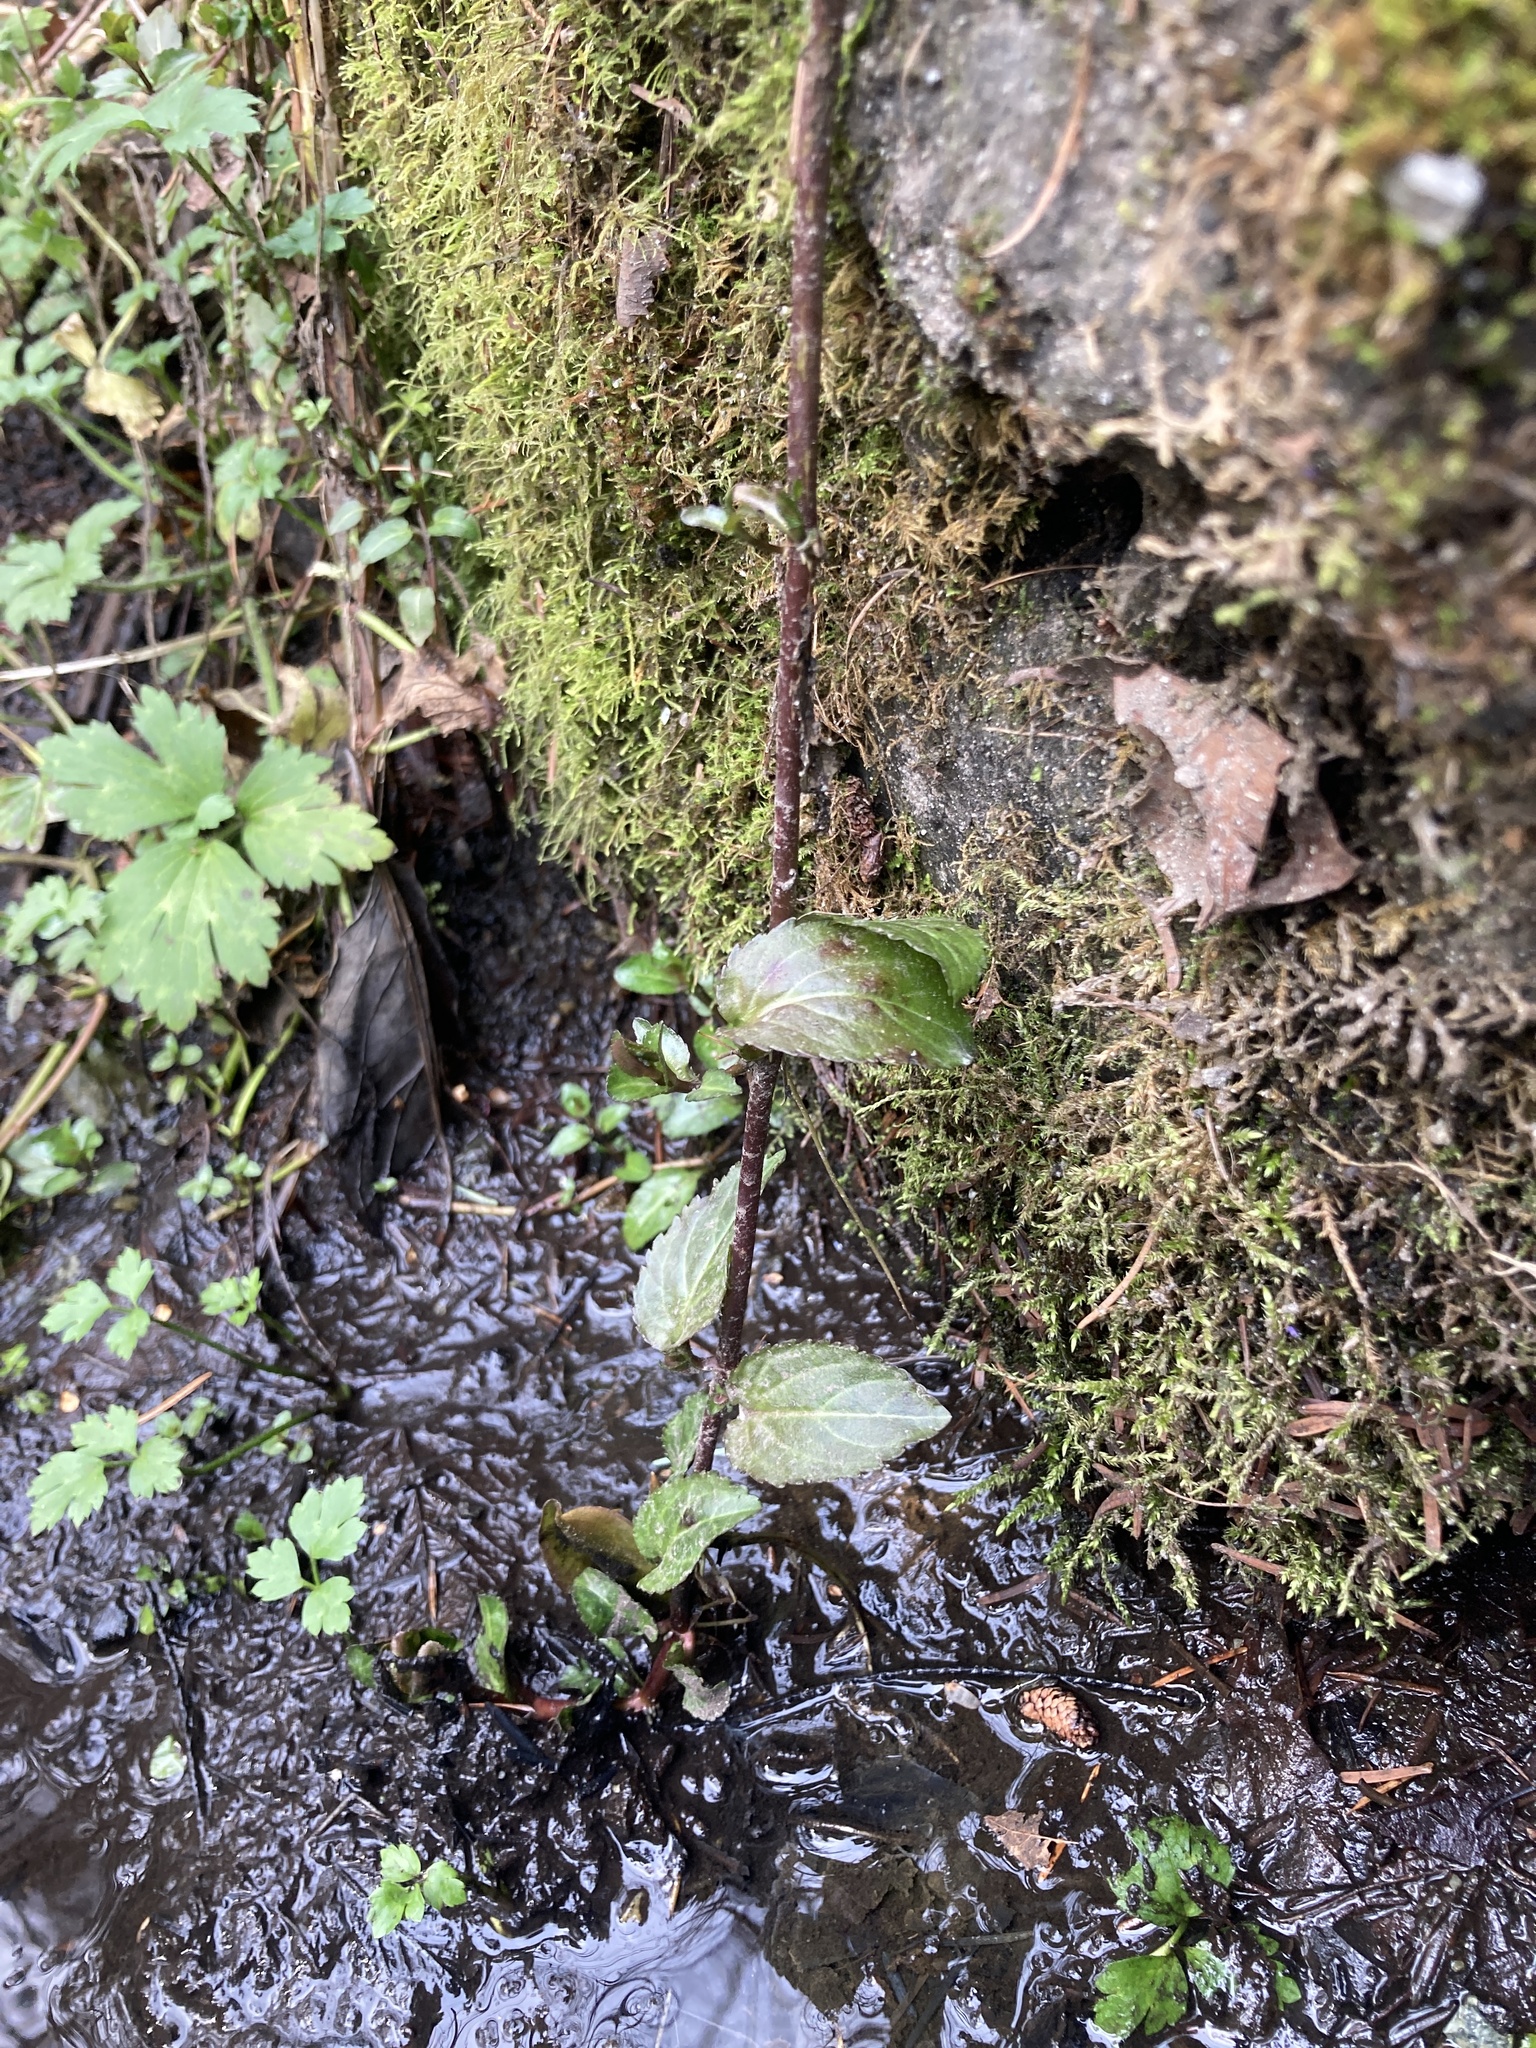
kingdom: Plantae
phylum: Tracheophyta
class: Magnoliopsida
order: Lamiales
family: Plantaginaceae
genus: Veronica
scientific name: Veronica americana
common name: American brooklime
